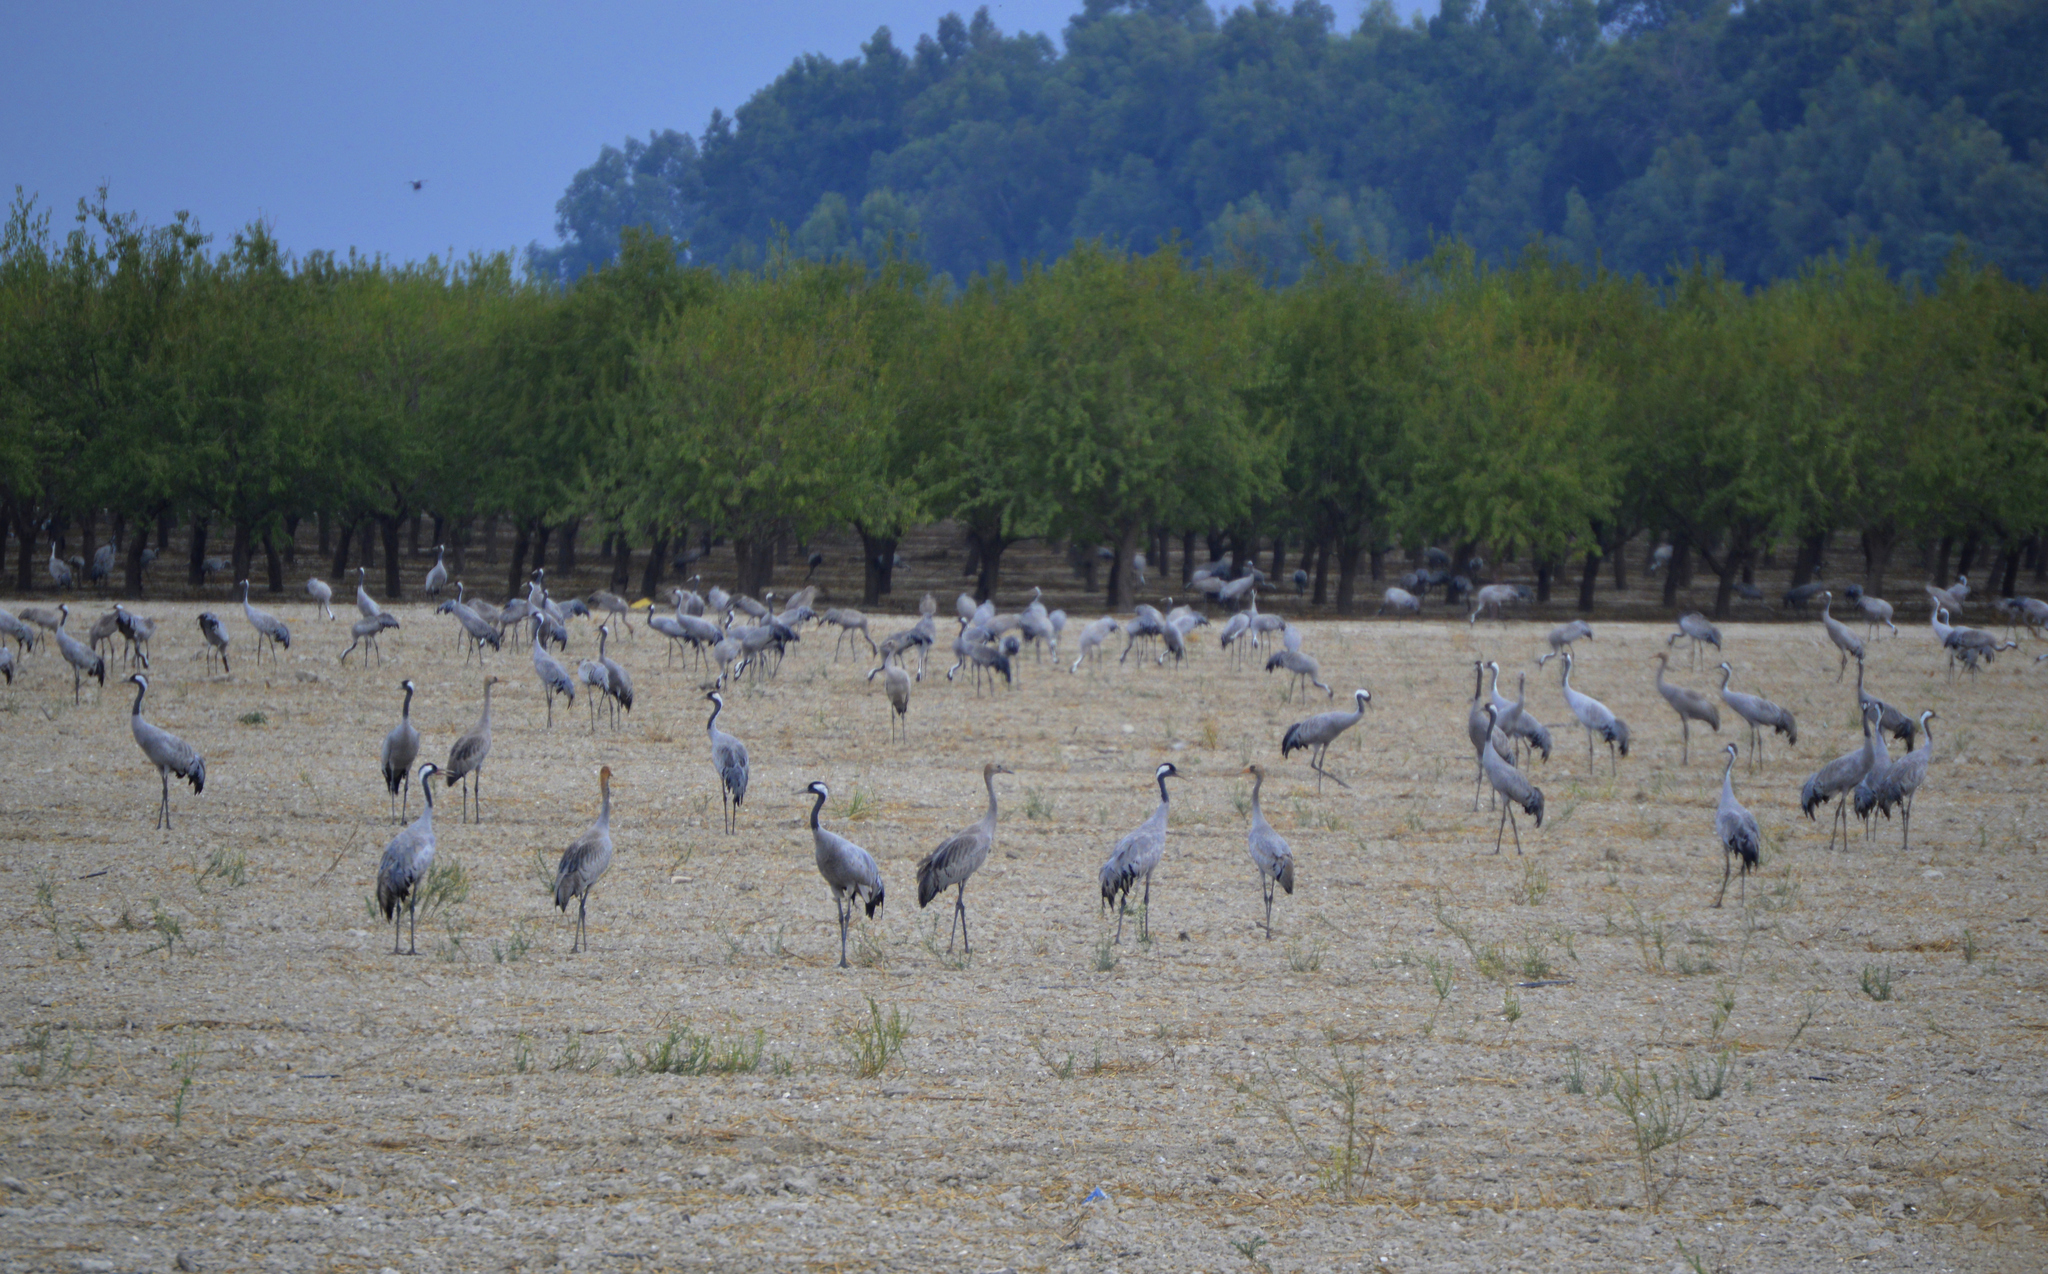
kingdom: Animalia
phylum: Chordata
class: Aves
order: Gruiformes
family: Gruidae
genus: Grus
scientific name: Grus grus
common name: Common crane
